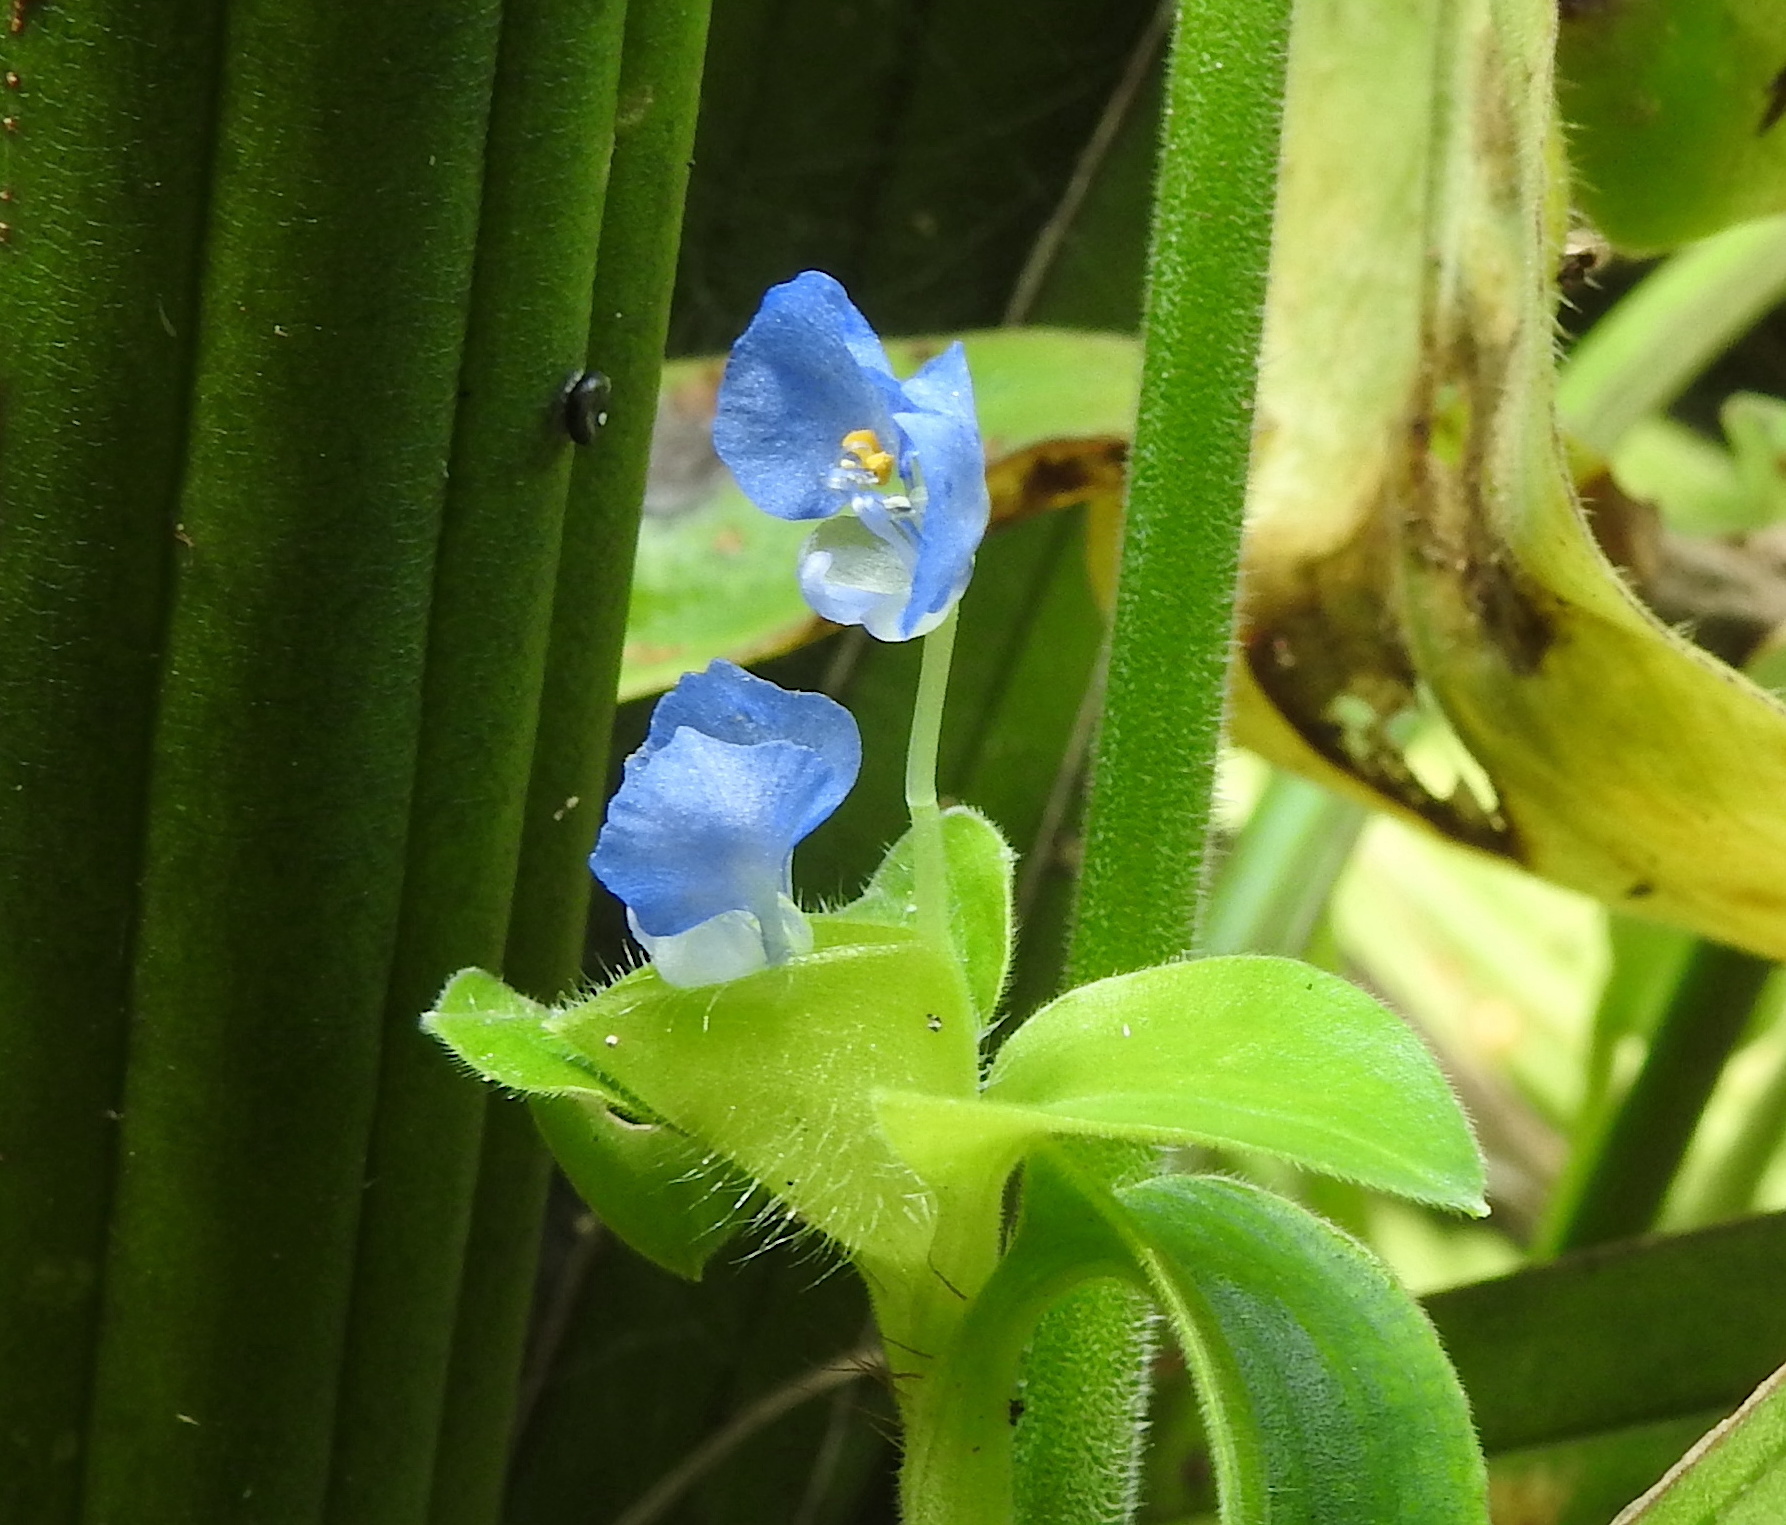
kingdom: Plantae
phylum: Tracheophyta
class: Liliopsida
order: Commelinales
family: Commelinaceae
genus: Commelina
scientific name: Commelina benghalensis
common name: Jio
